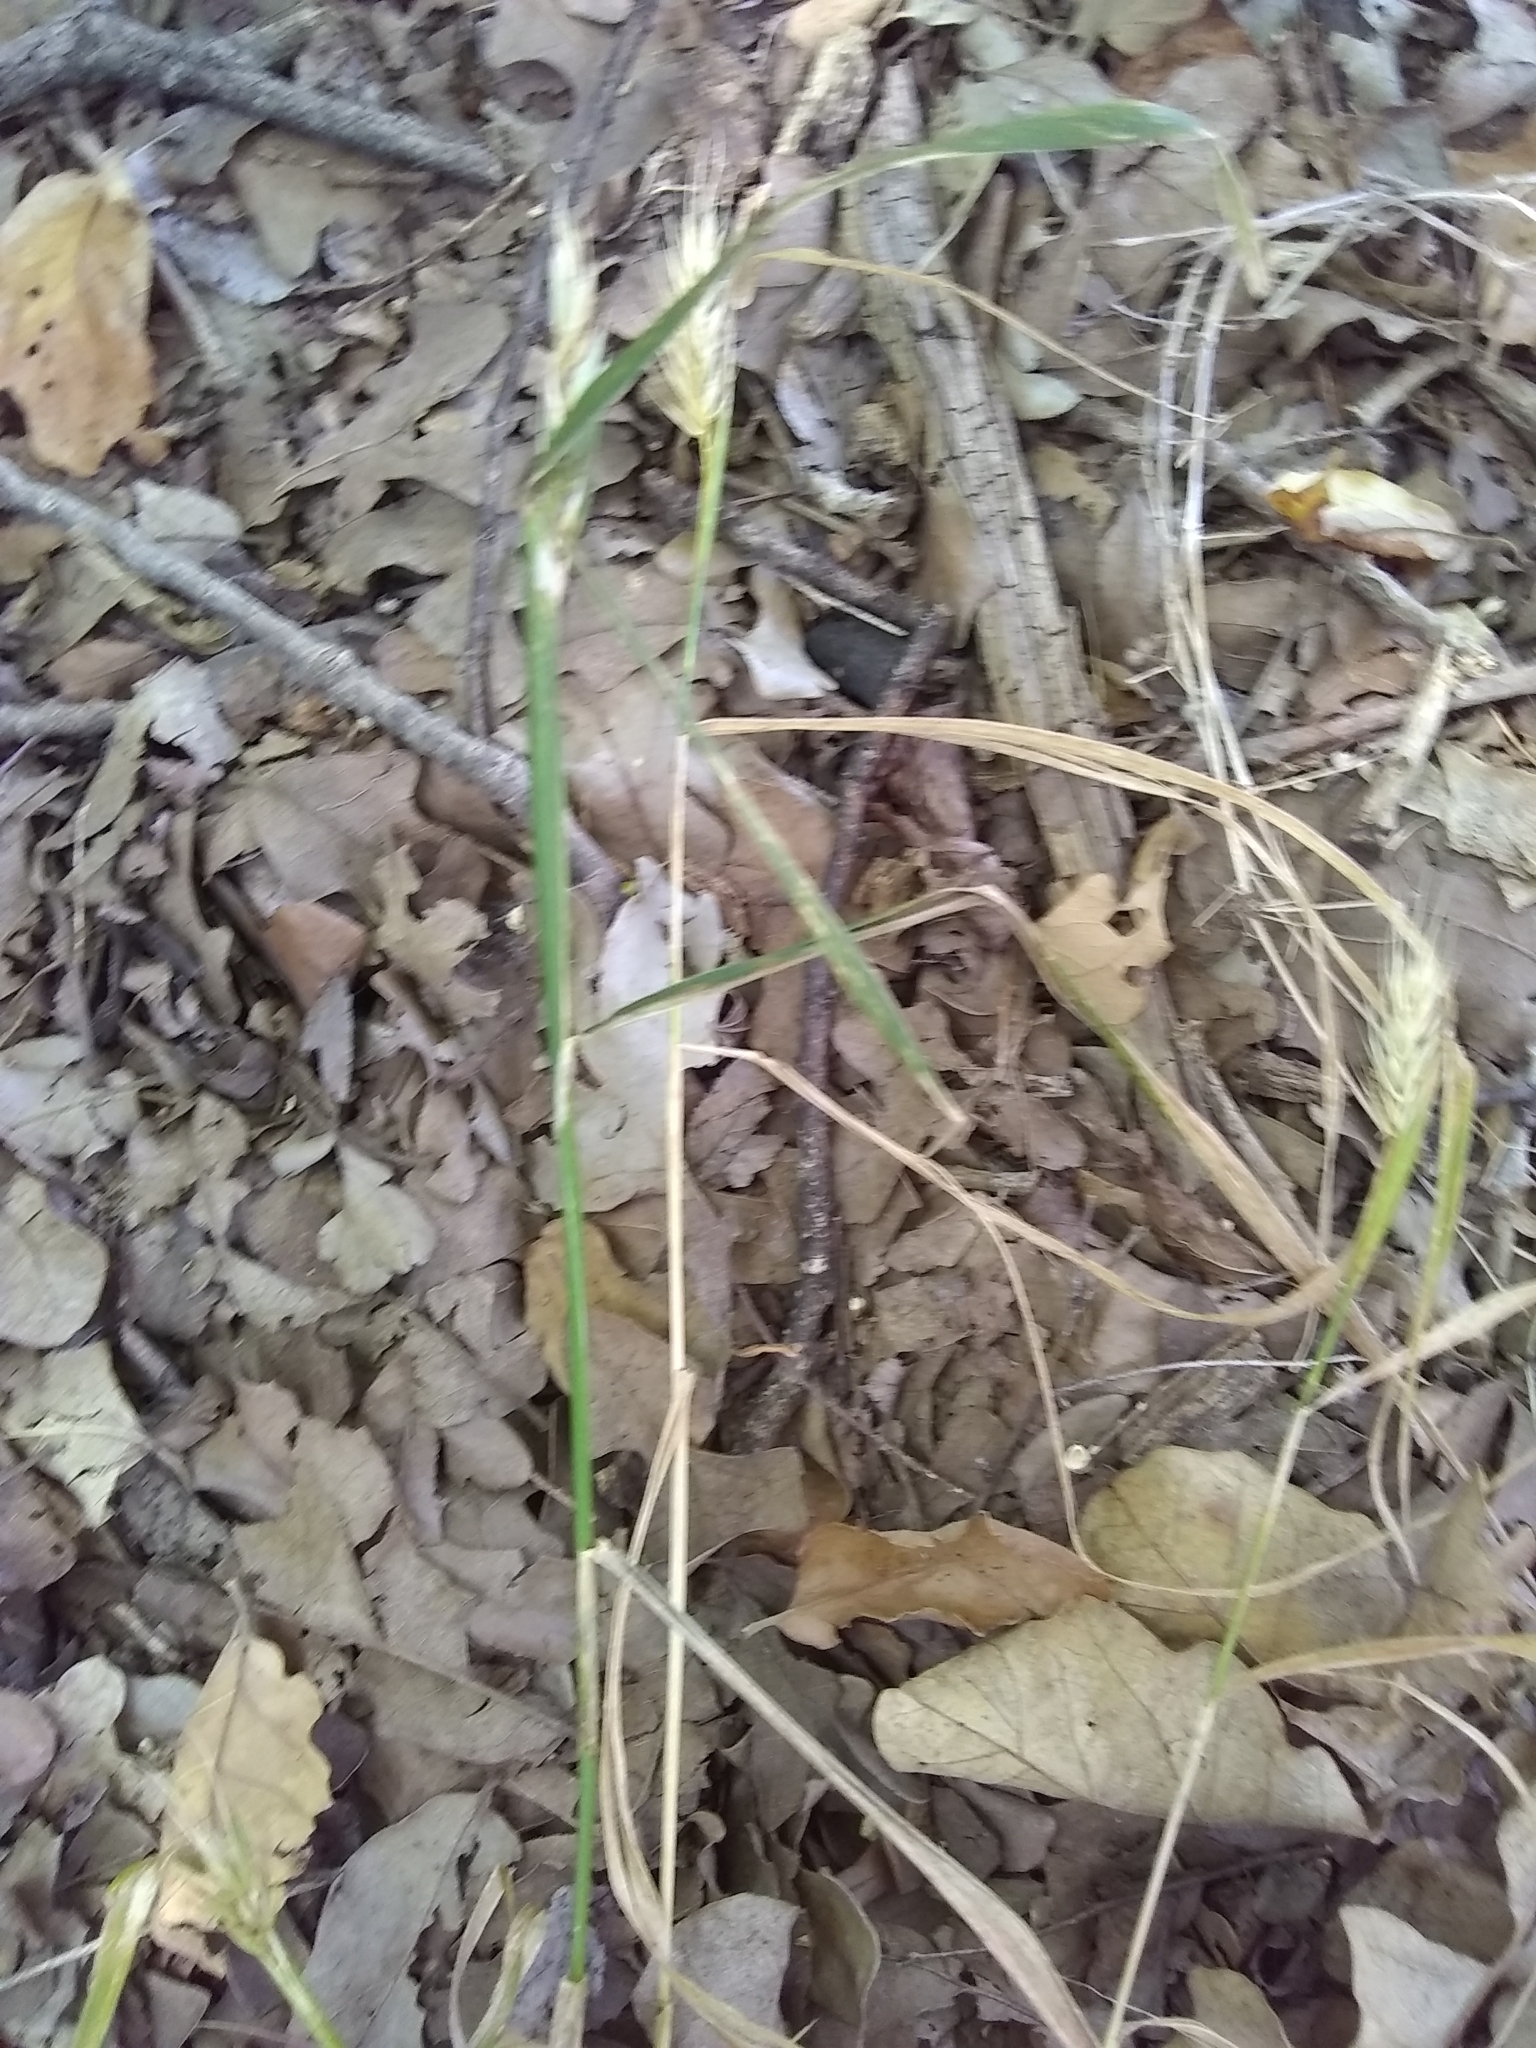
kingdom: Plantae
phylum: Tracheophyta
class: Liliopsida
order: Poales
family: Poaceae
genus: Elymus
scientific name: Elymus virginicus
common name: Common eastern wildrye
